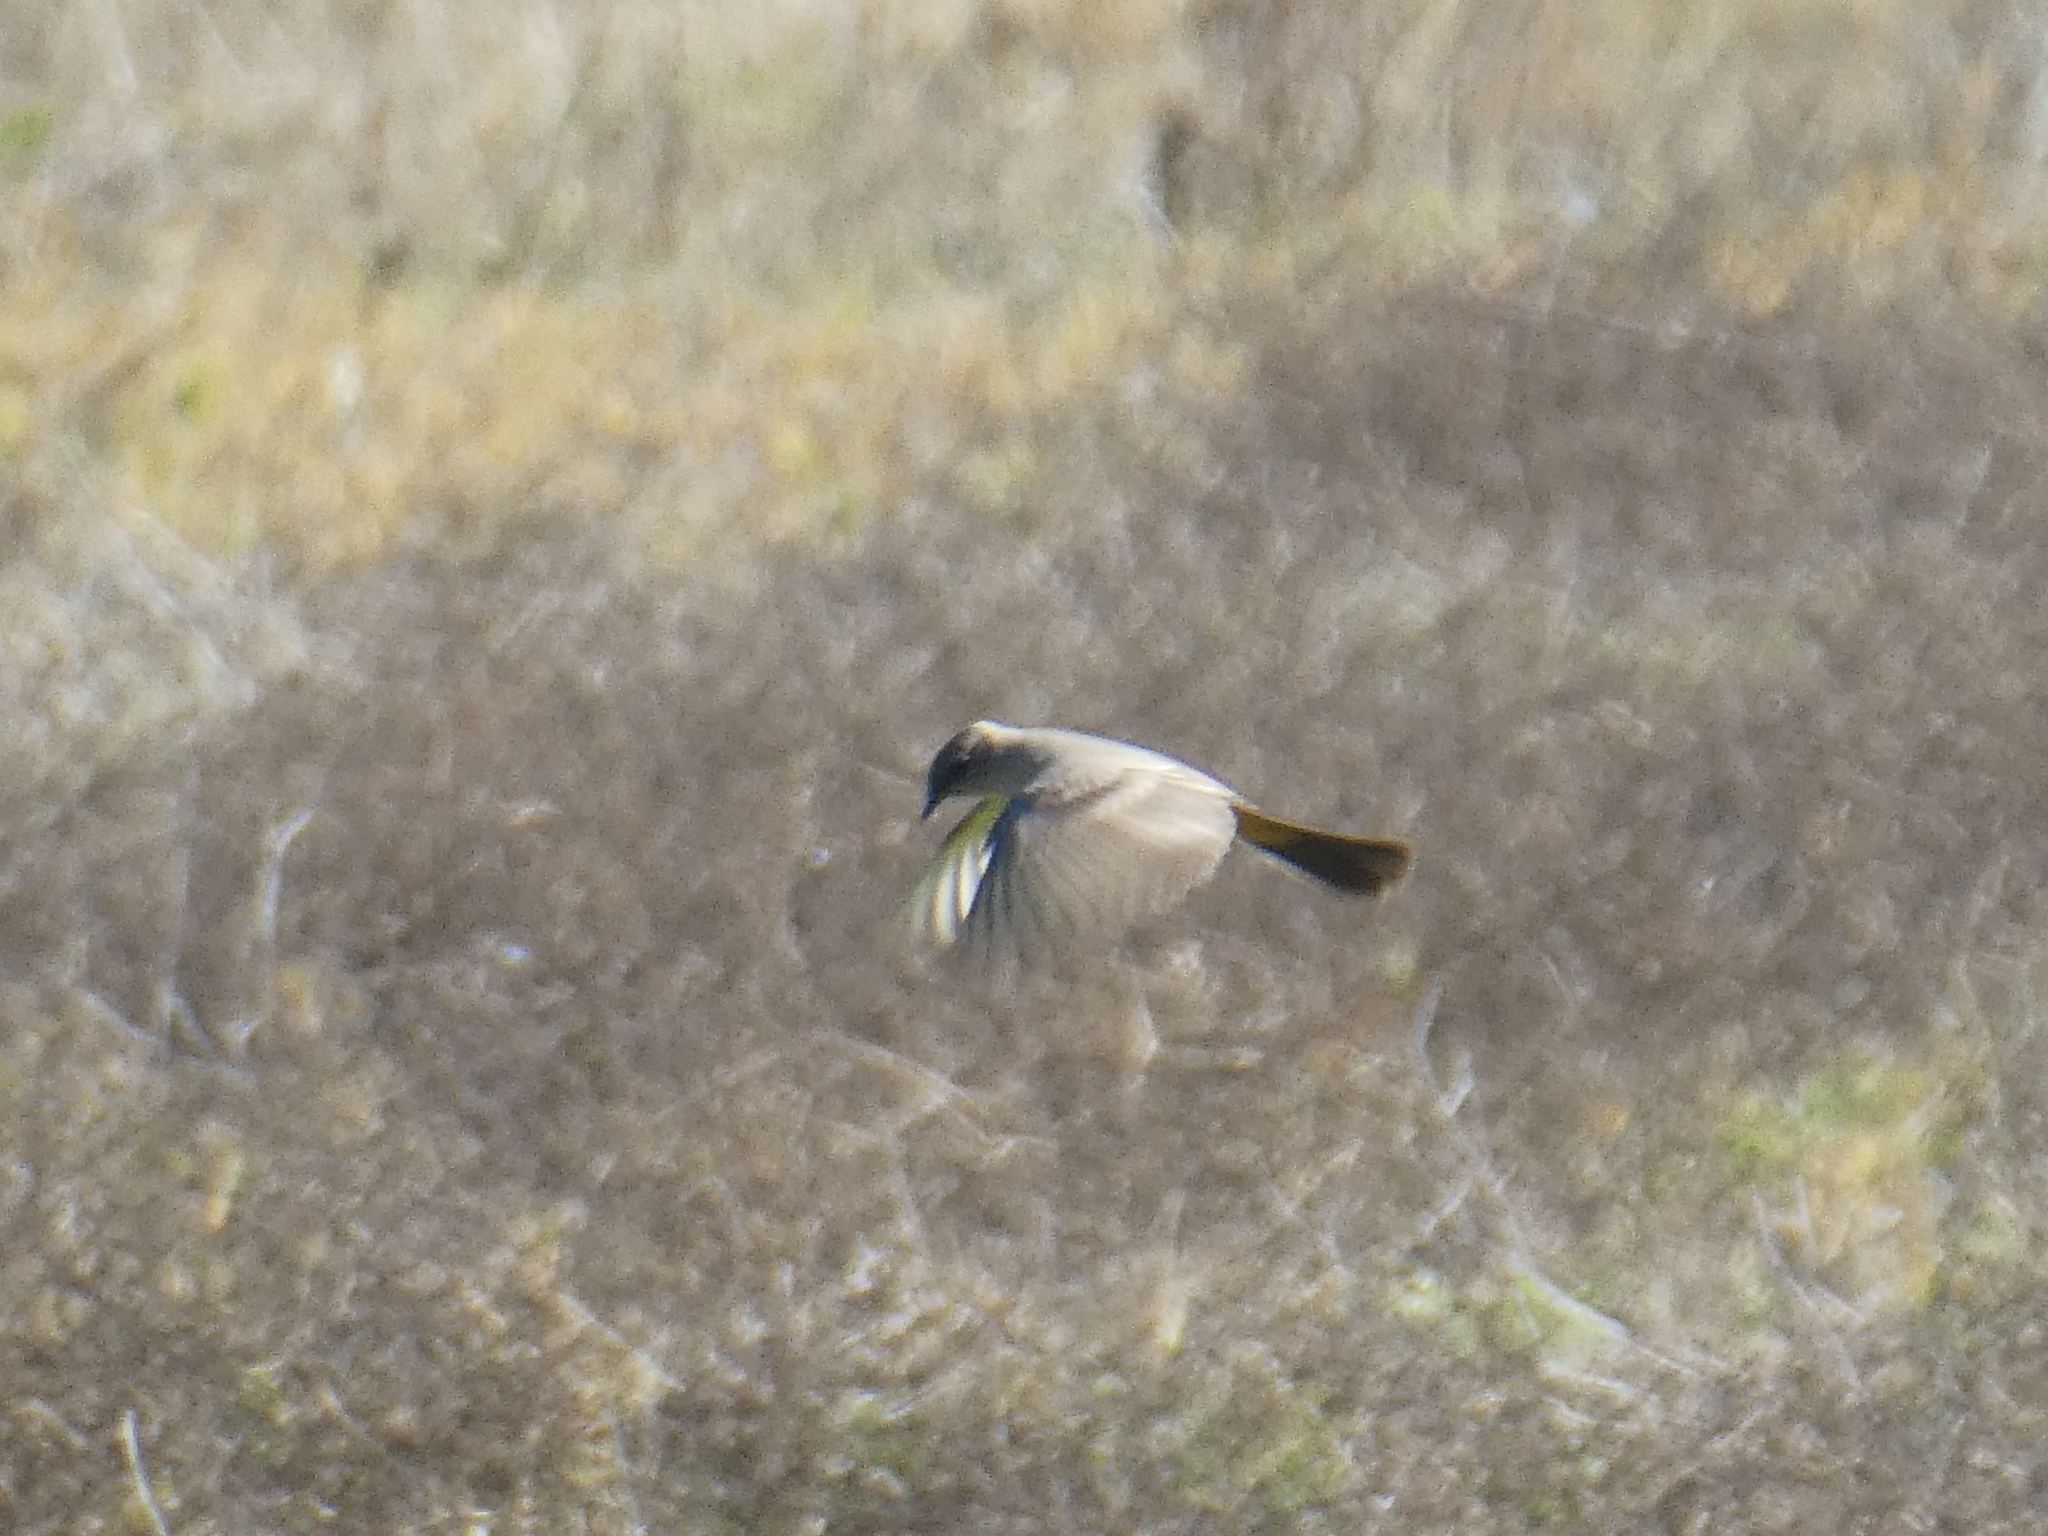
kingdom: Animalia
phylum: Chordata
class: Aves
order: Passeriformes
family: Tyrannidae
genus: Sayornis
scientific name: Sayornis saya
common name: Say's phoebe
